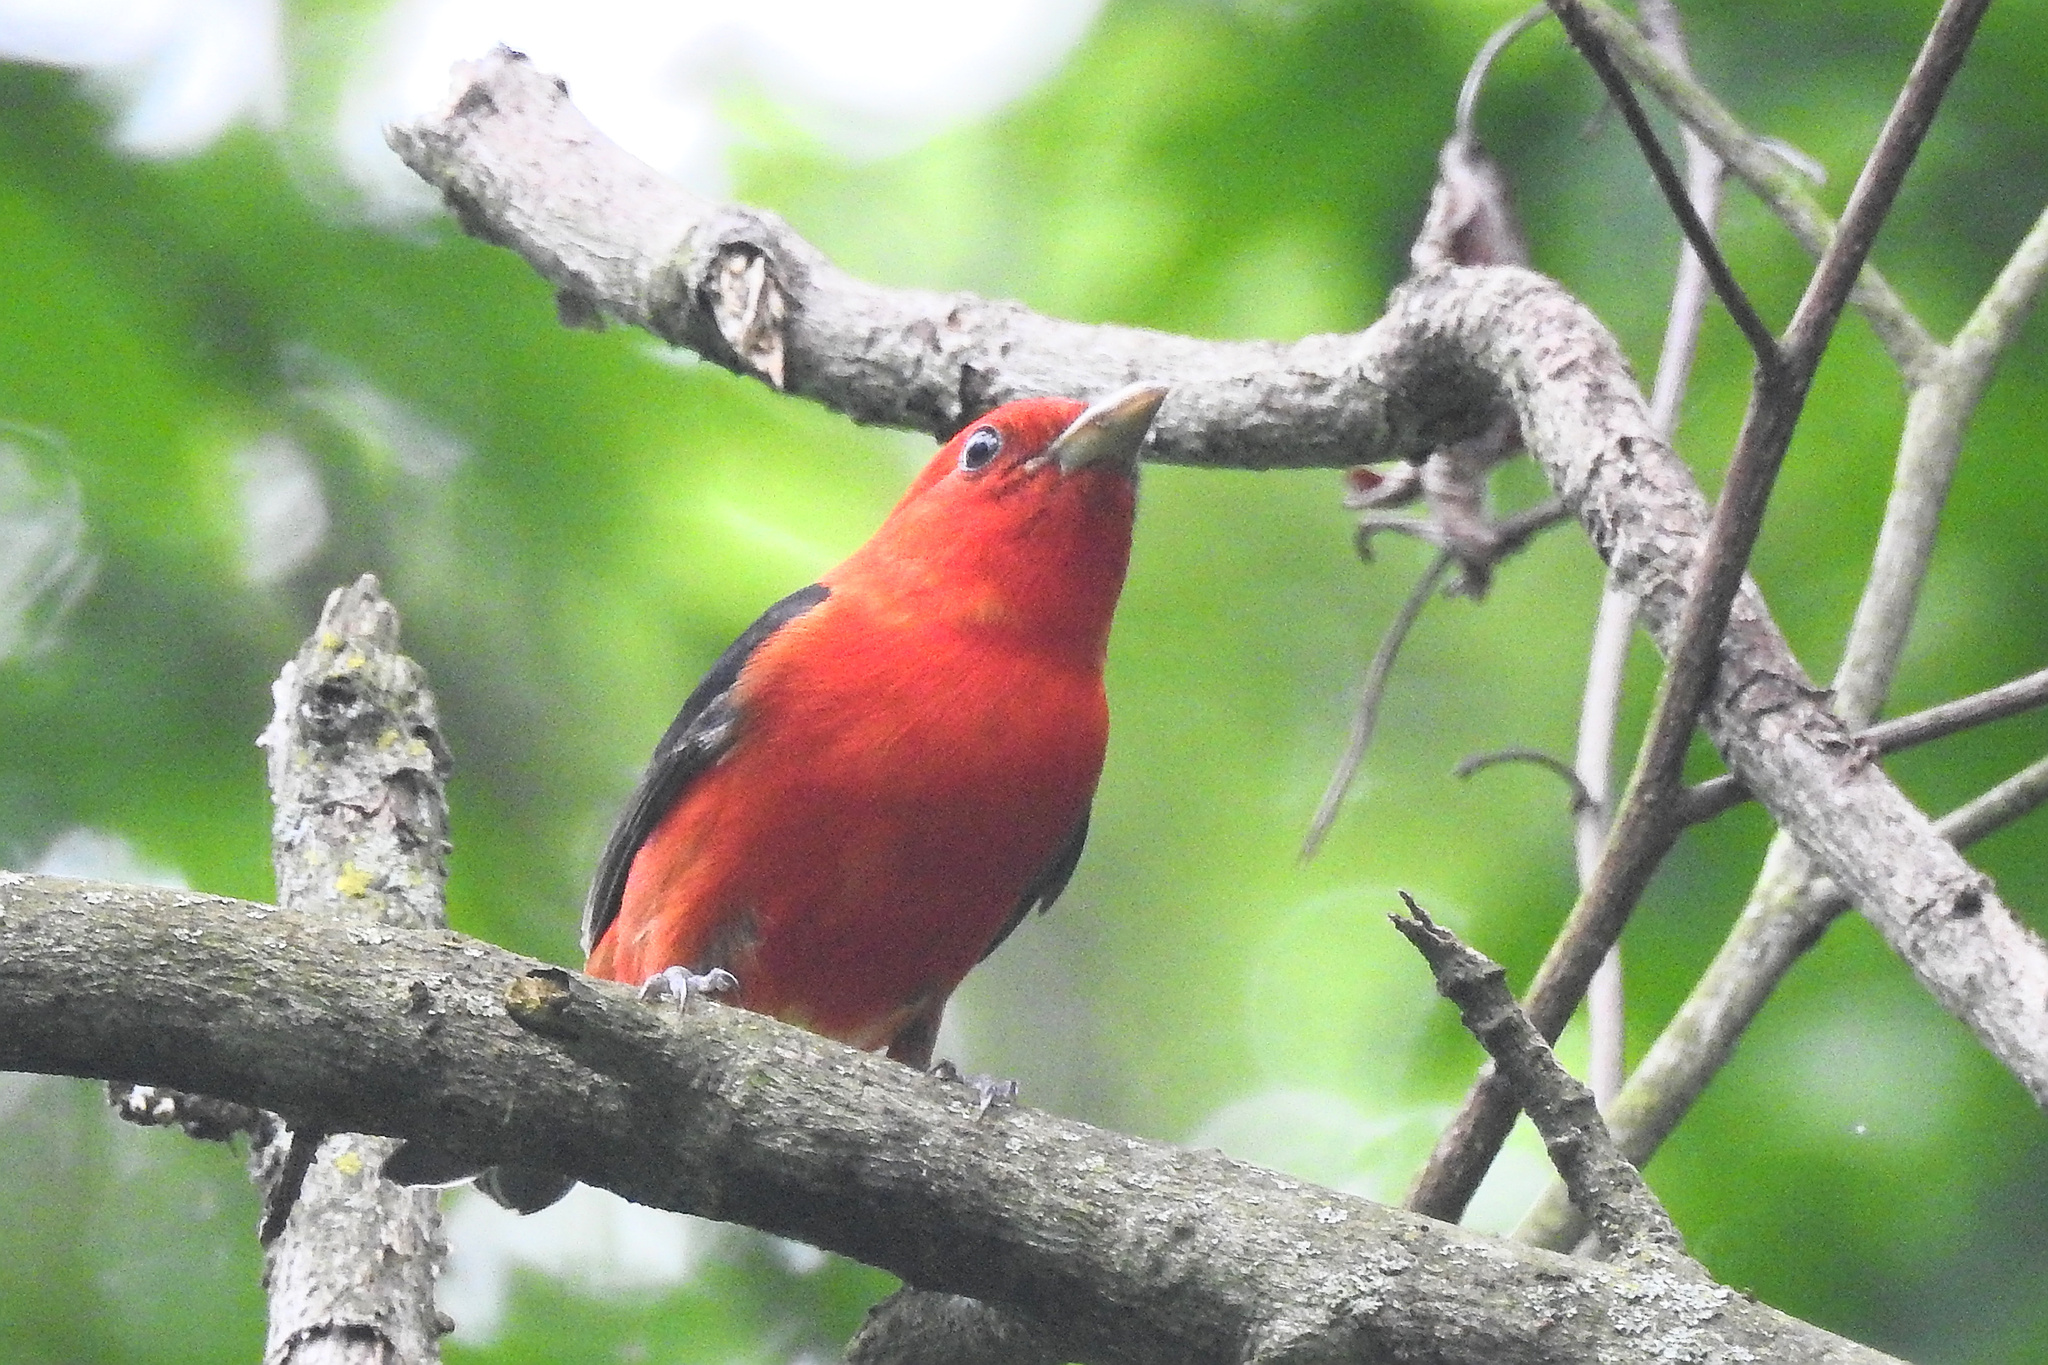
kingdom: Animalia
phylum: Chordata
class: Aves
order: Passeriformes
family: Cardinalidae
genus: Piranga
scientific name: Piranga olivacea
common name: Scarlet tanager
